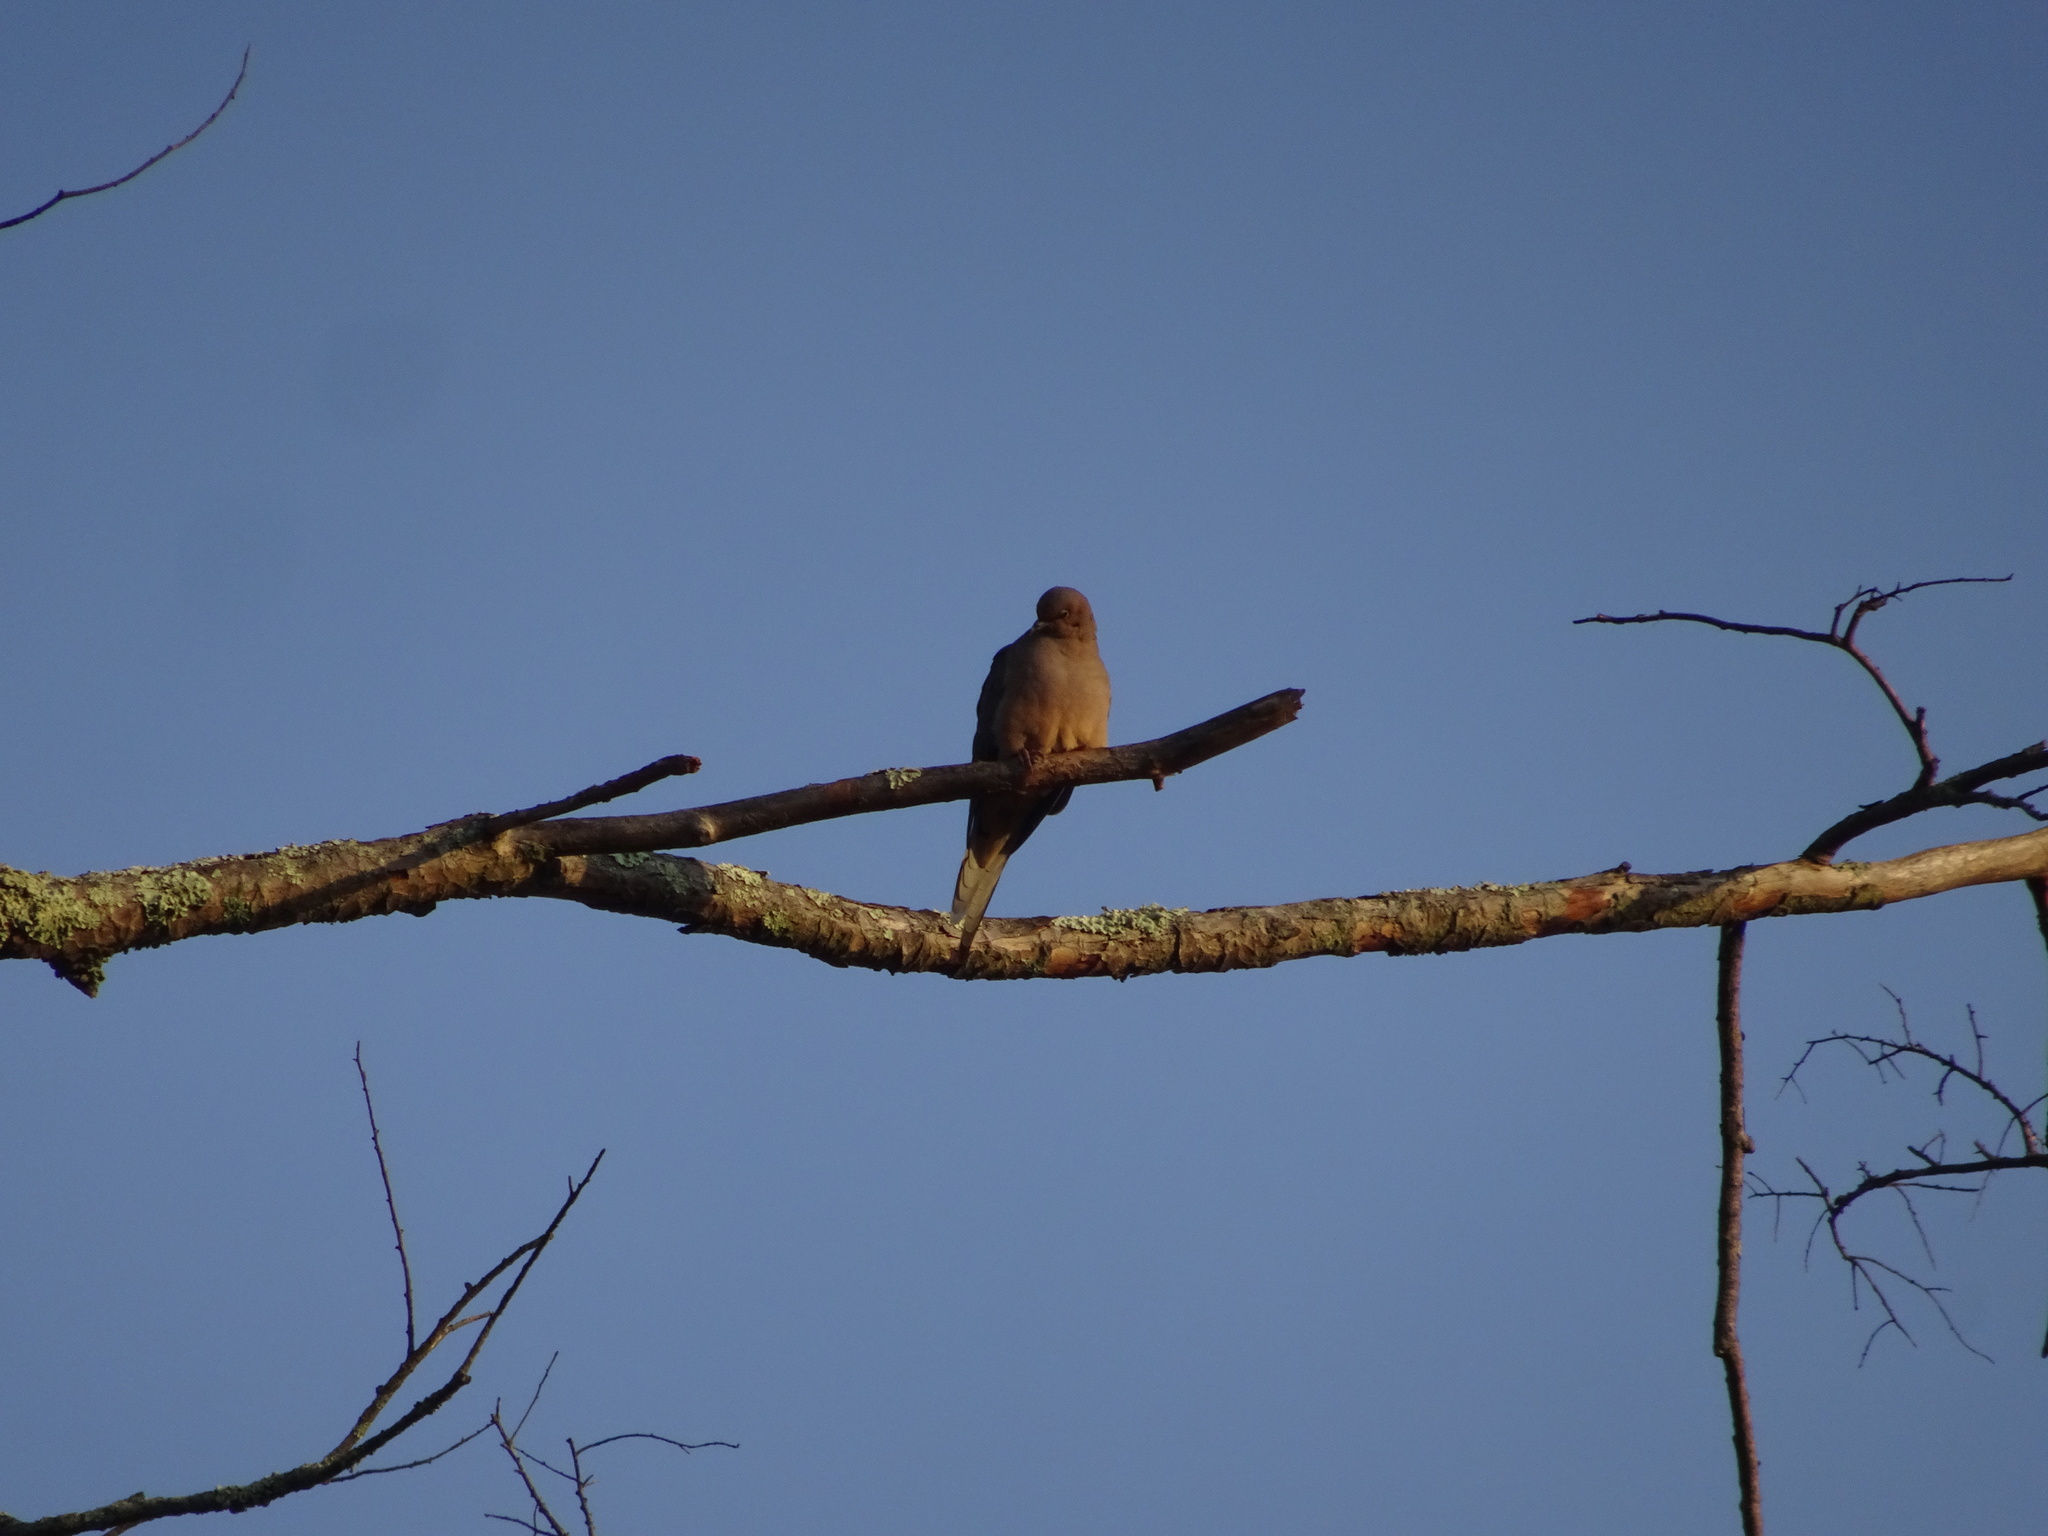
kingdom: Animalia
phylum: Chordata
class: Aves
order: Columbiformes
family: Columbidae
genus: Zenaida
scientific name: Zenaida macroura
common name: Mourning dove
